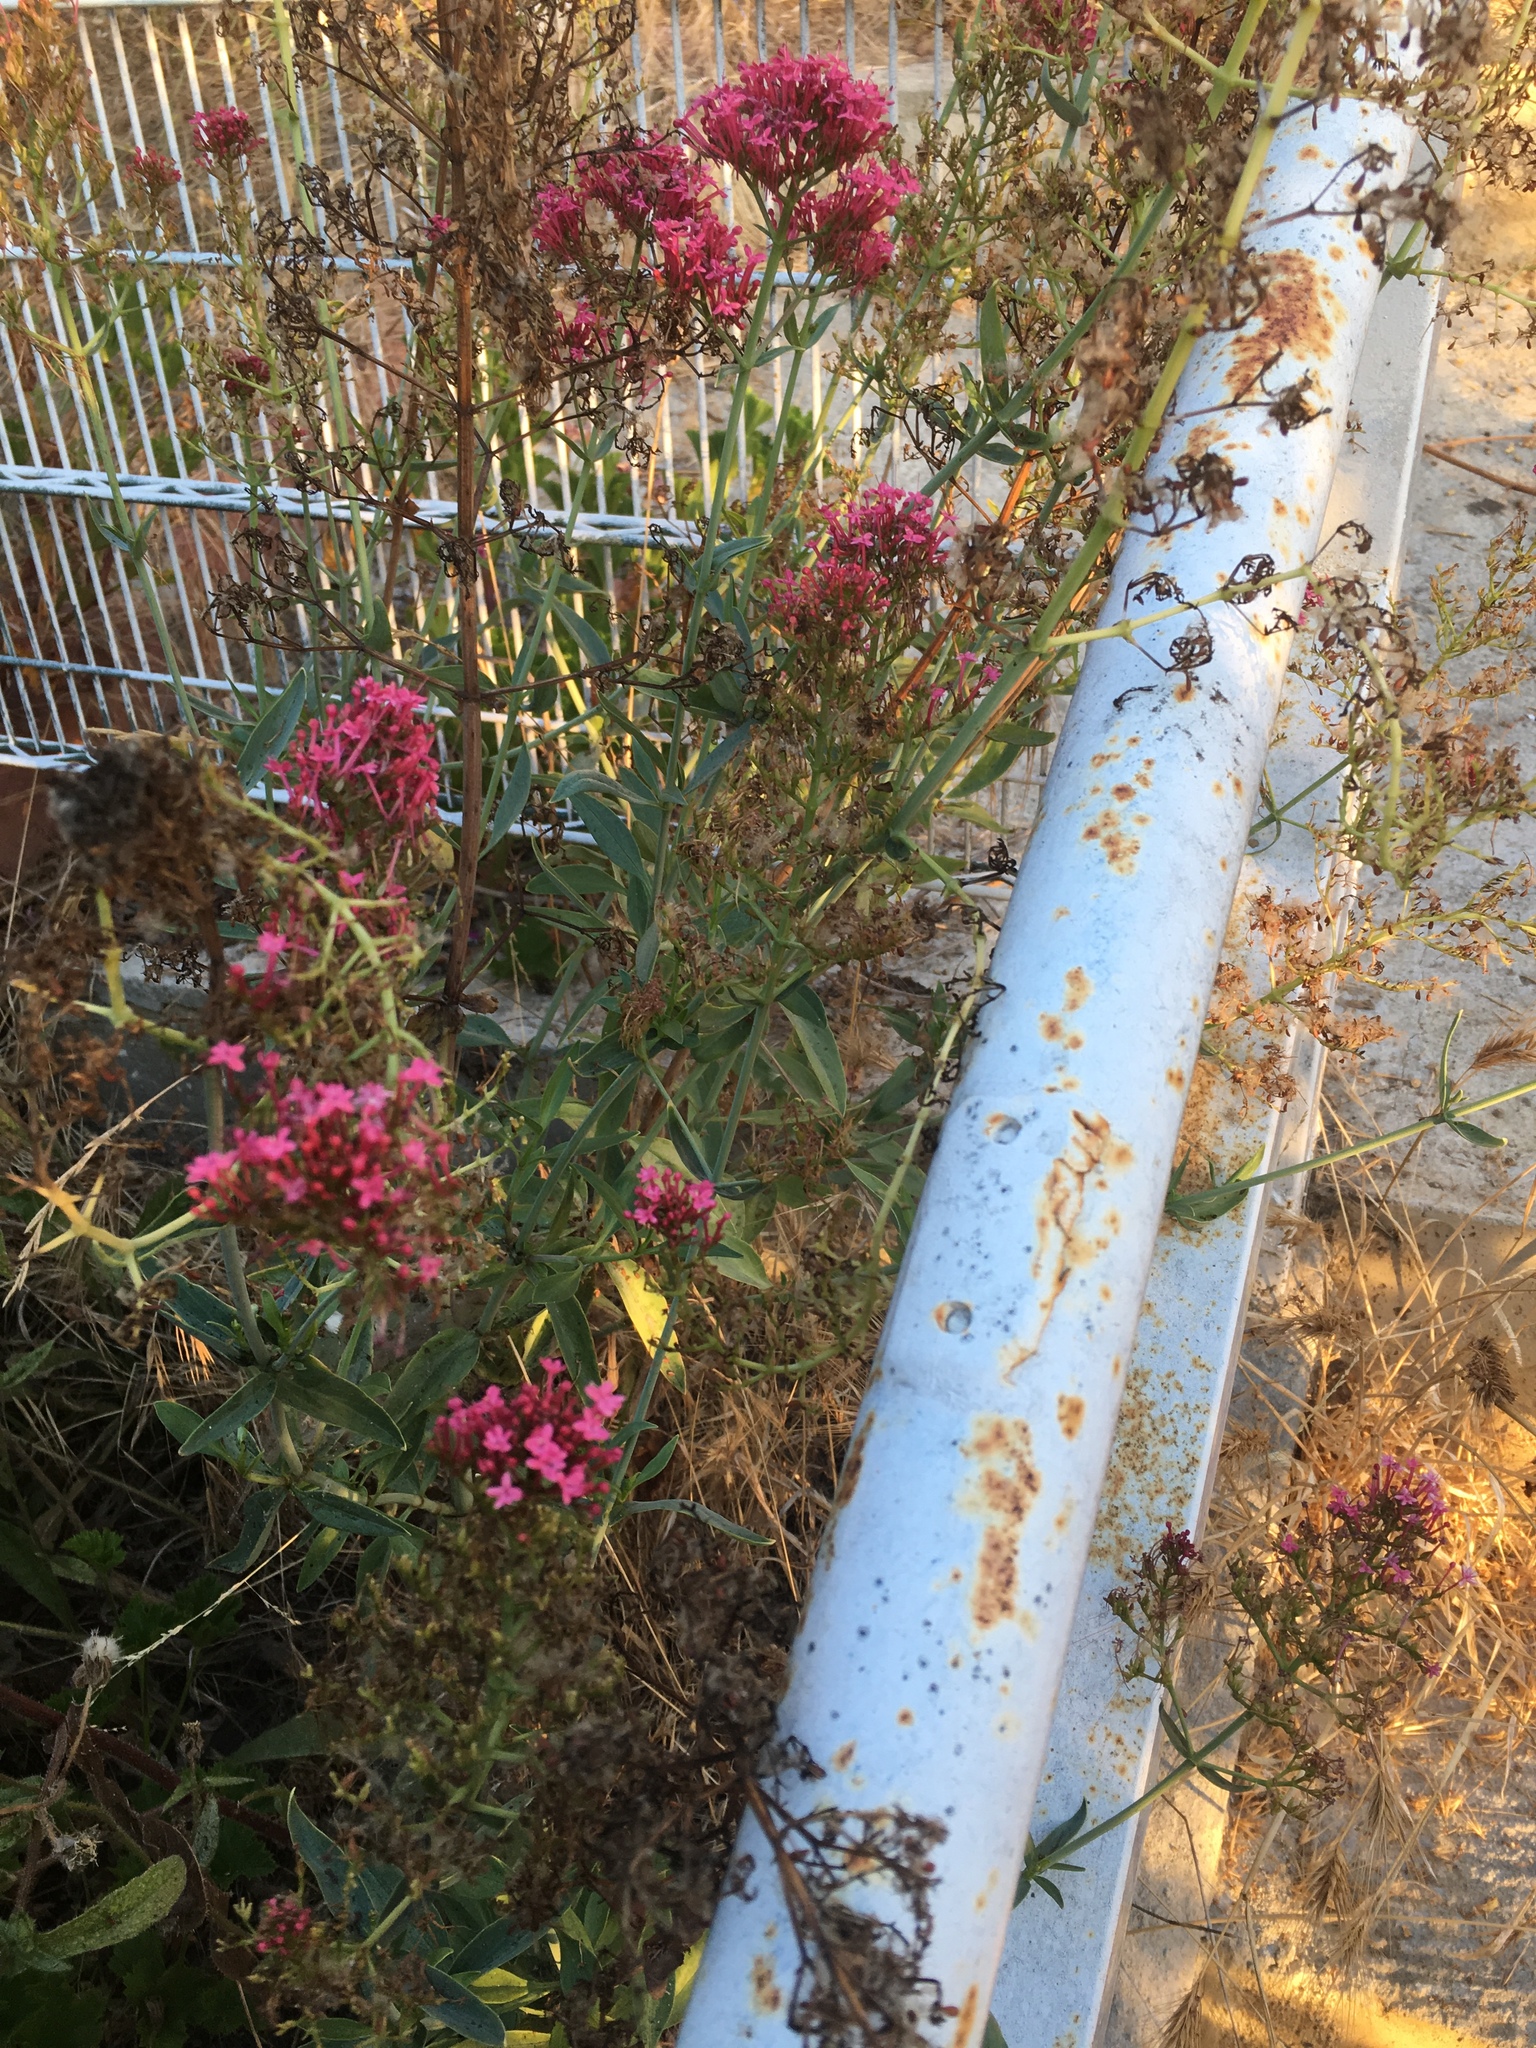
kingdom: Plantae
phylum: Tracheophyta
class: Magnoliopsida
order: Dipsacales
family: Caprifoliaceae
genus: Centranthus
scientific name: Centranthus ruber
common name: Red valerian
